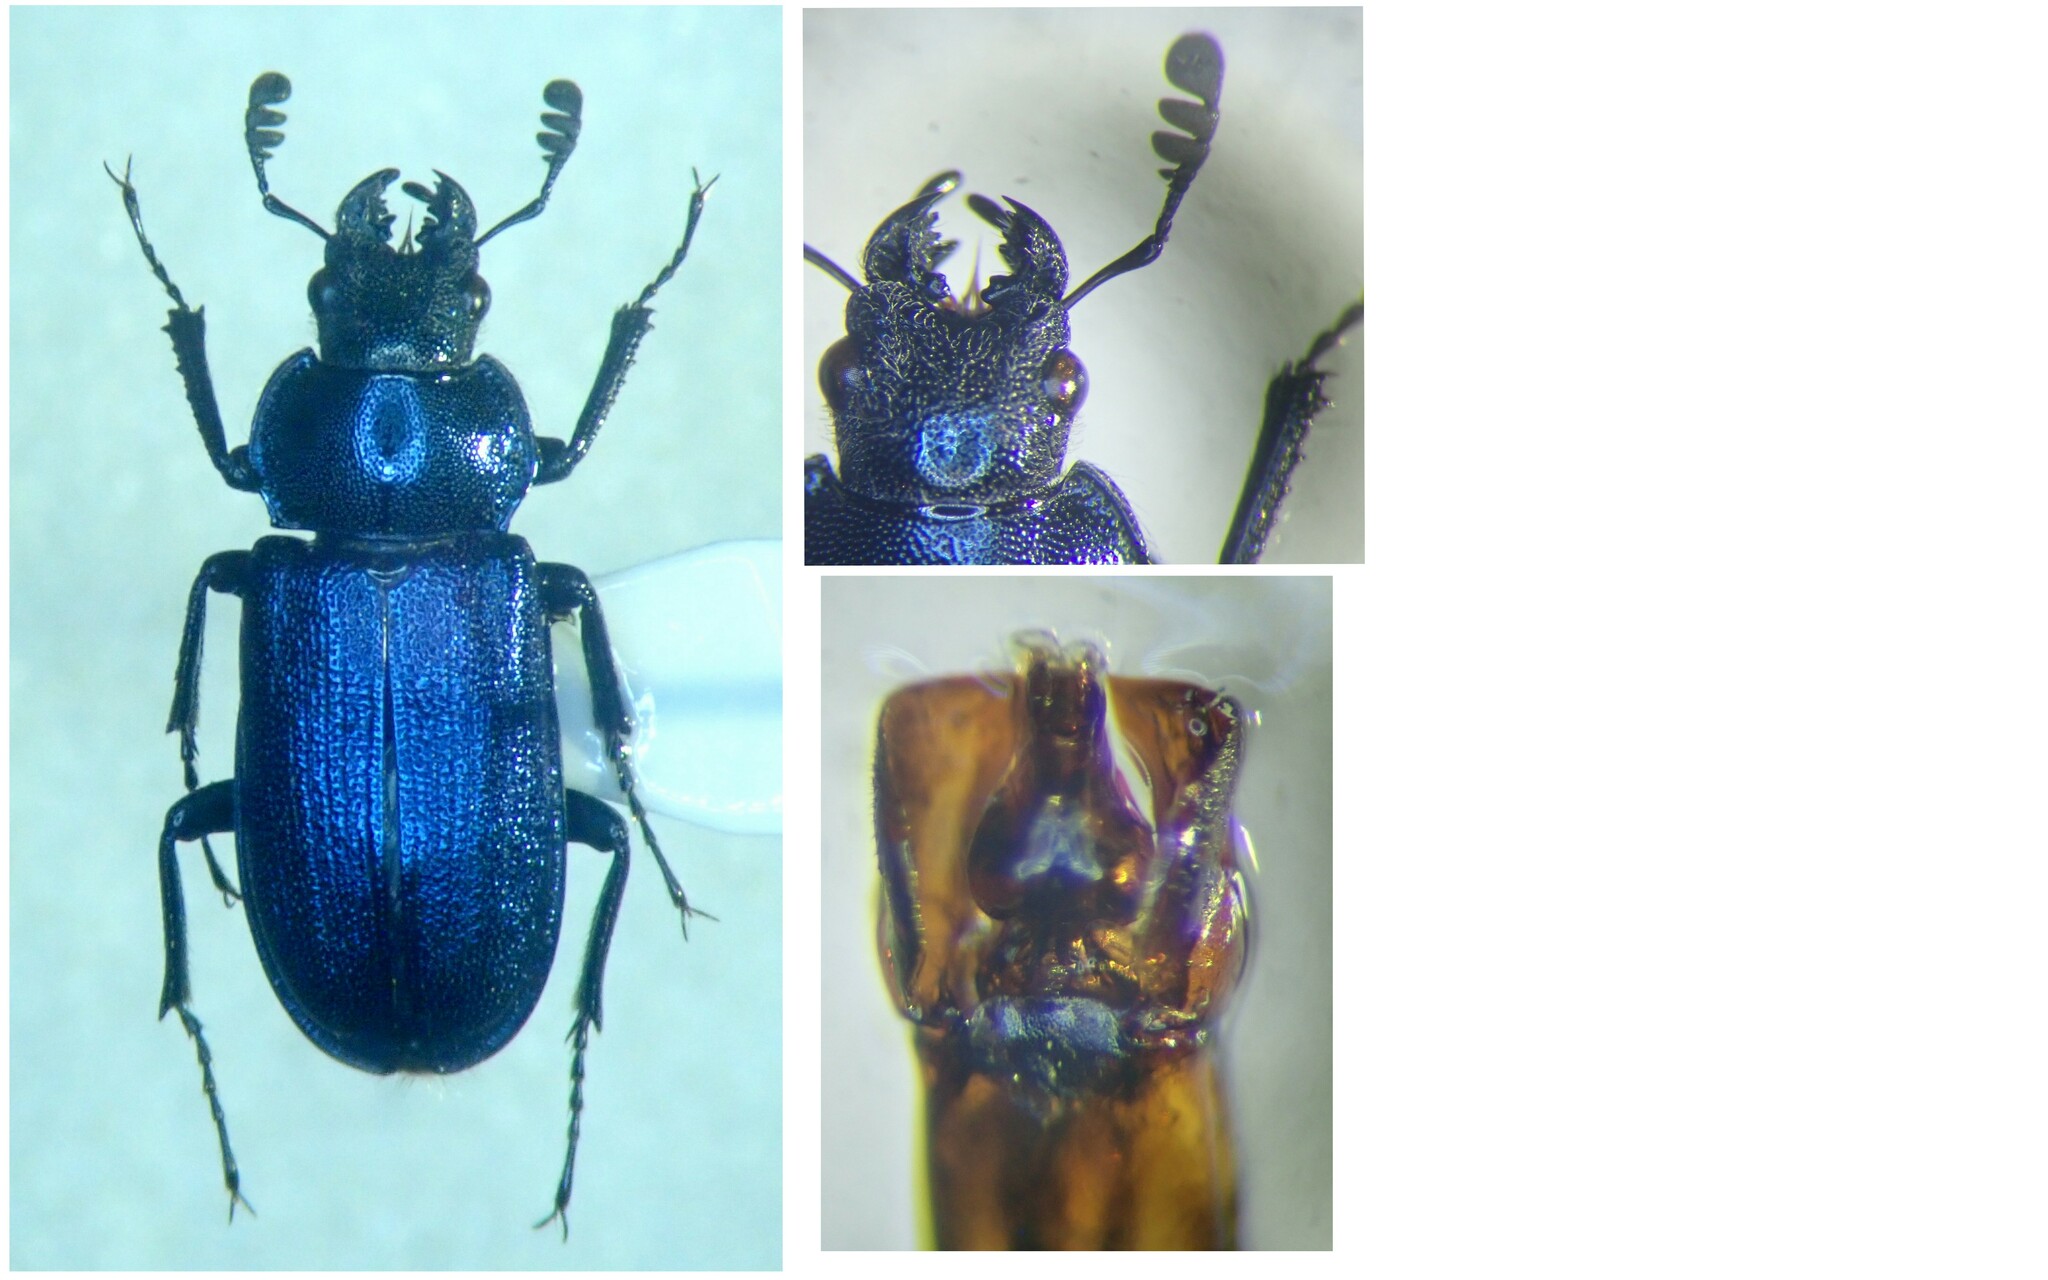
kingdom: Animalia
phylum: Arthropoda
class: Insecta
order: Coleoptera
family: Lucanidae
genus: Platycerus
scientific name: Platycerus caraboides
